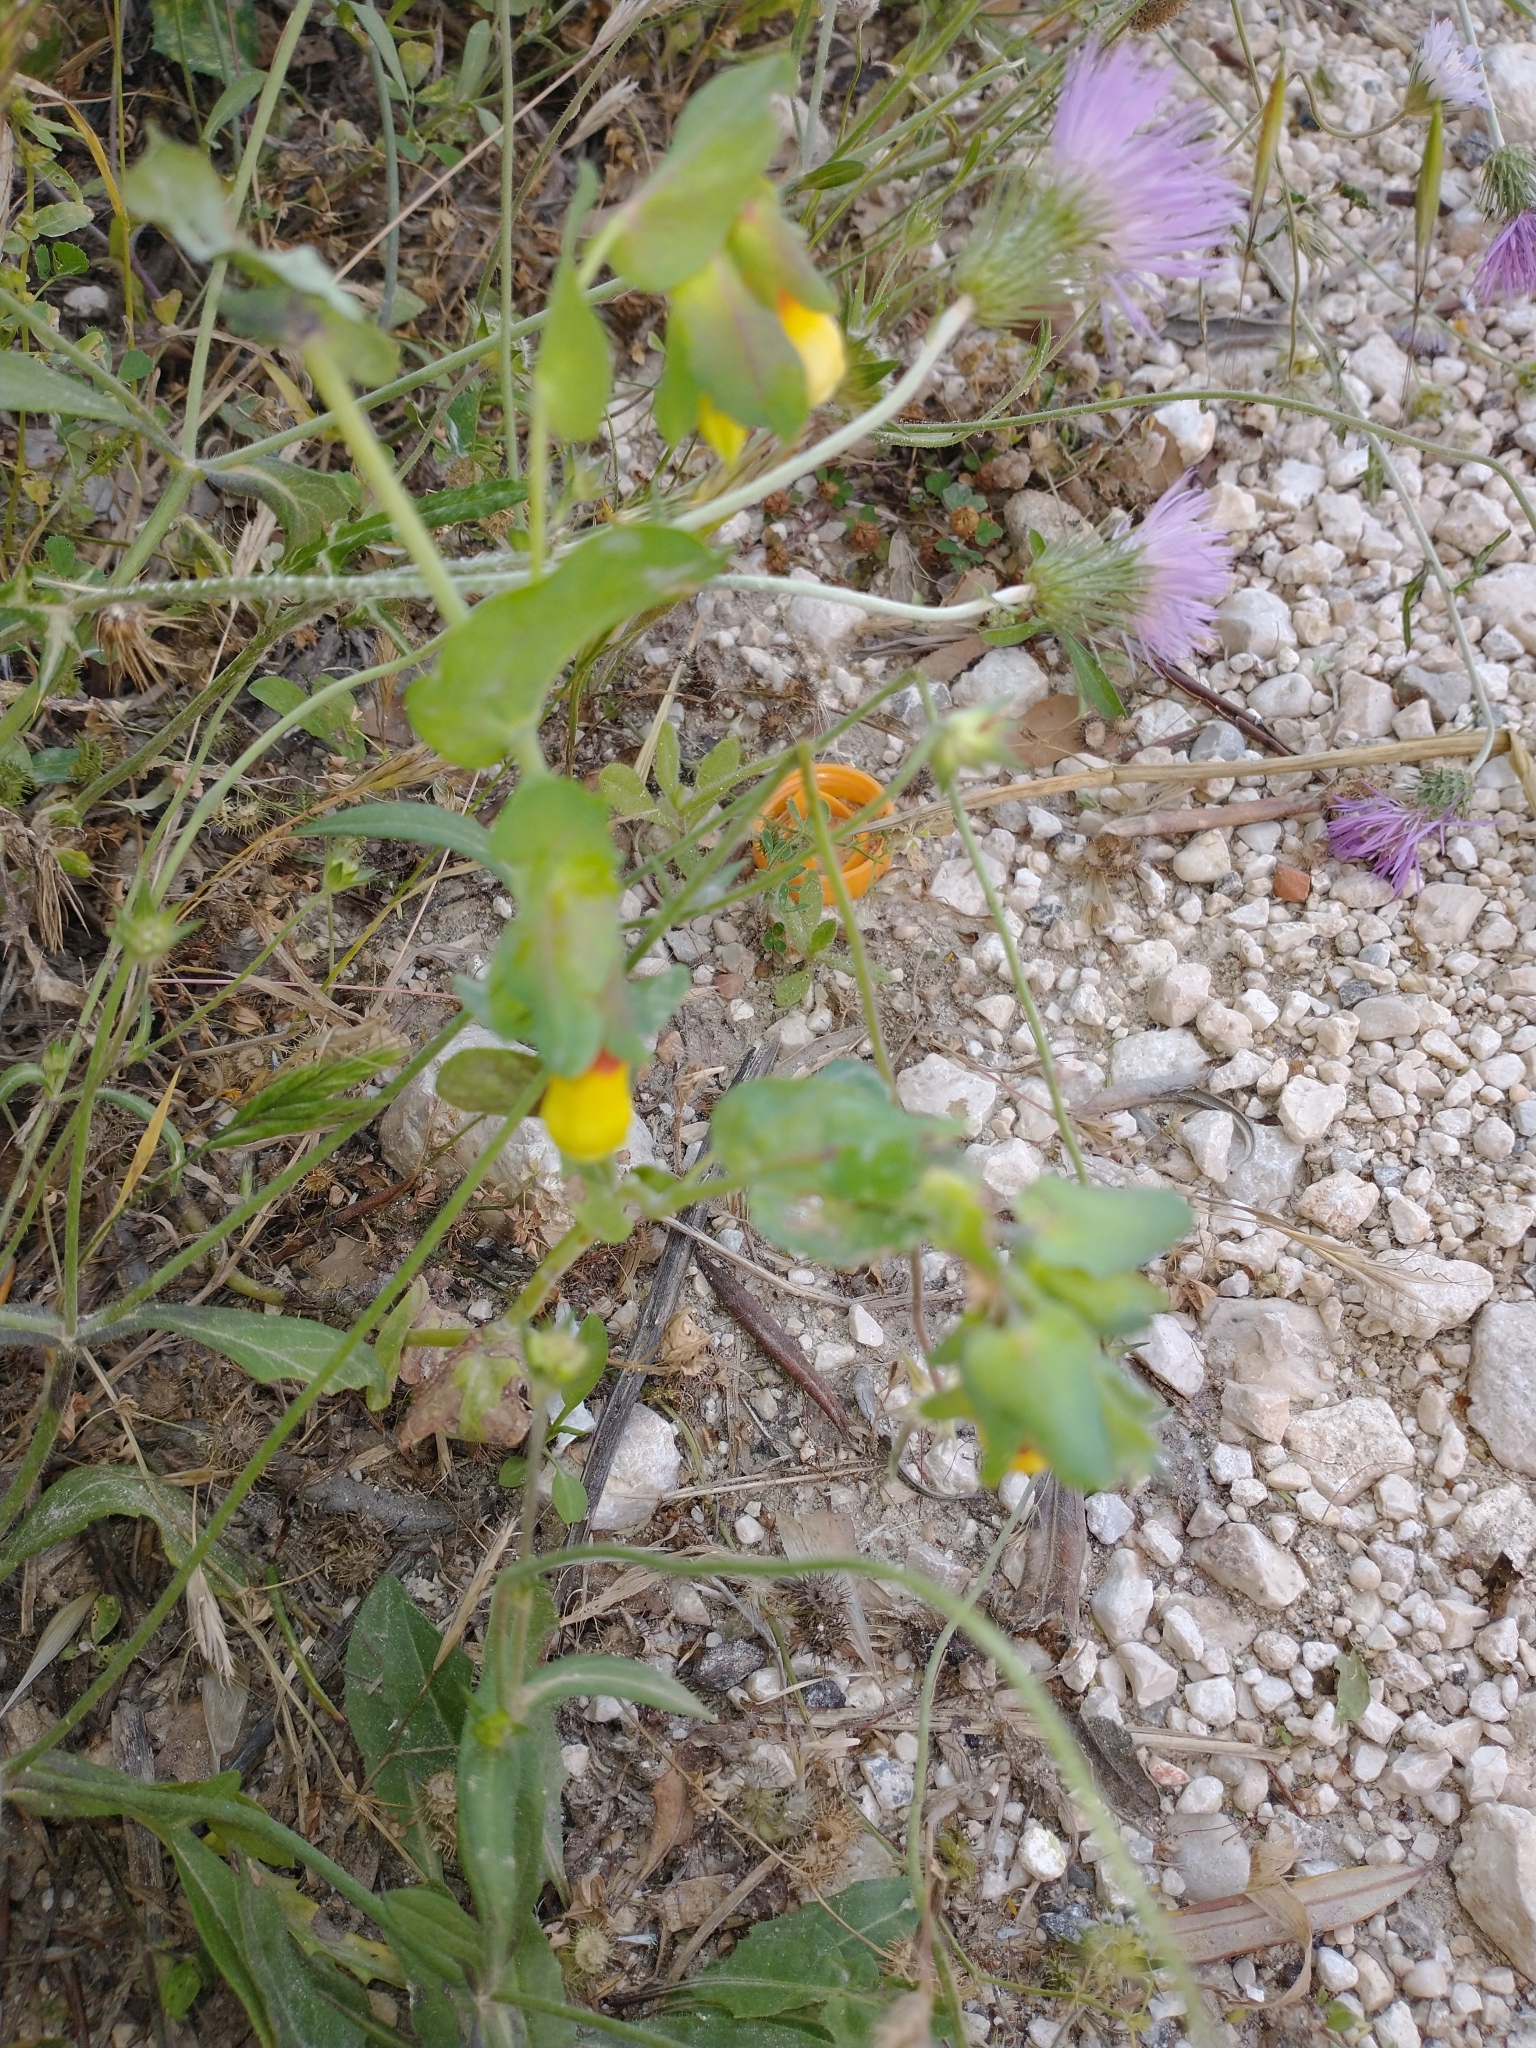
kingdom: Plantae
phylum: Tracheophyta
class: Magnoliopsida
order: Boraginales
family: Boraginaceae
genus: Cerinthe
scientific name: Cerinthe major
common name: Greater honeywort
